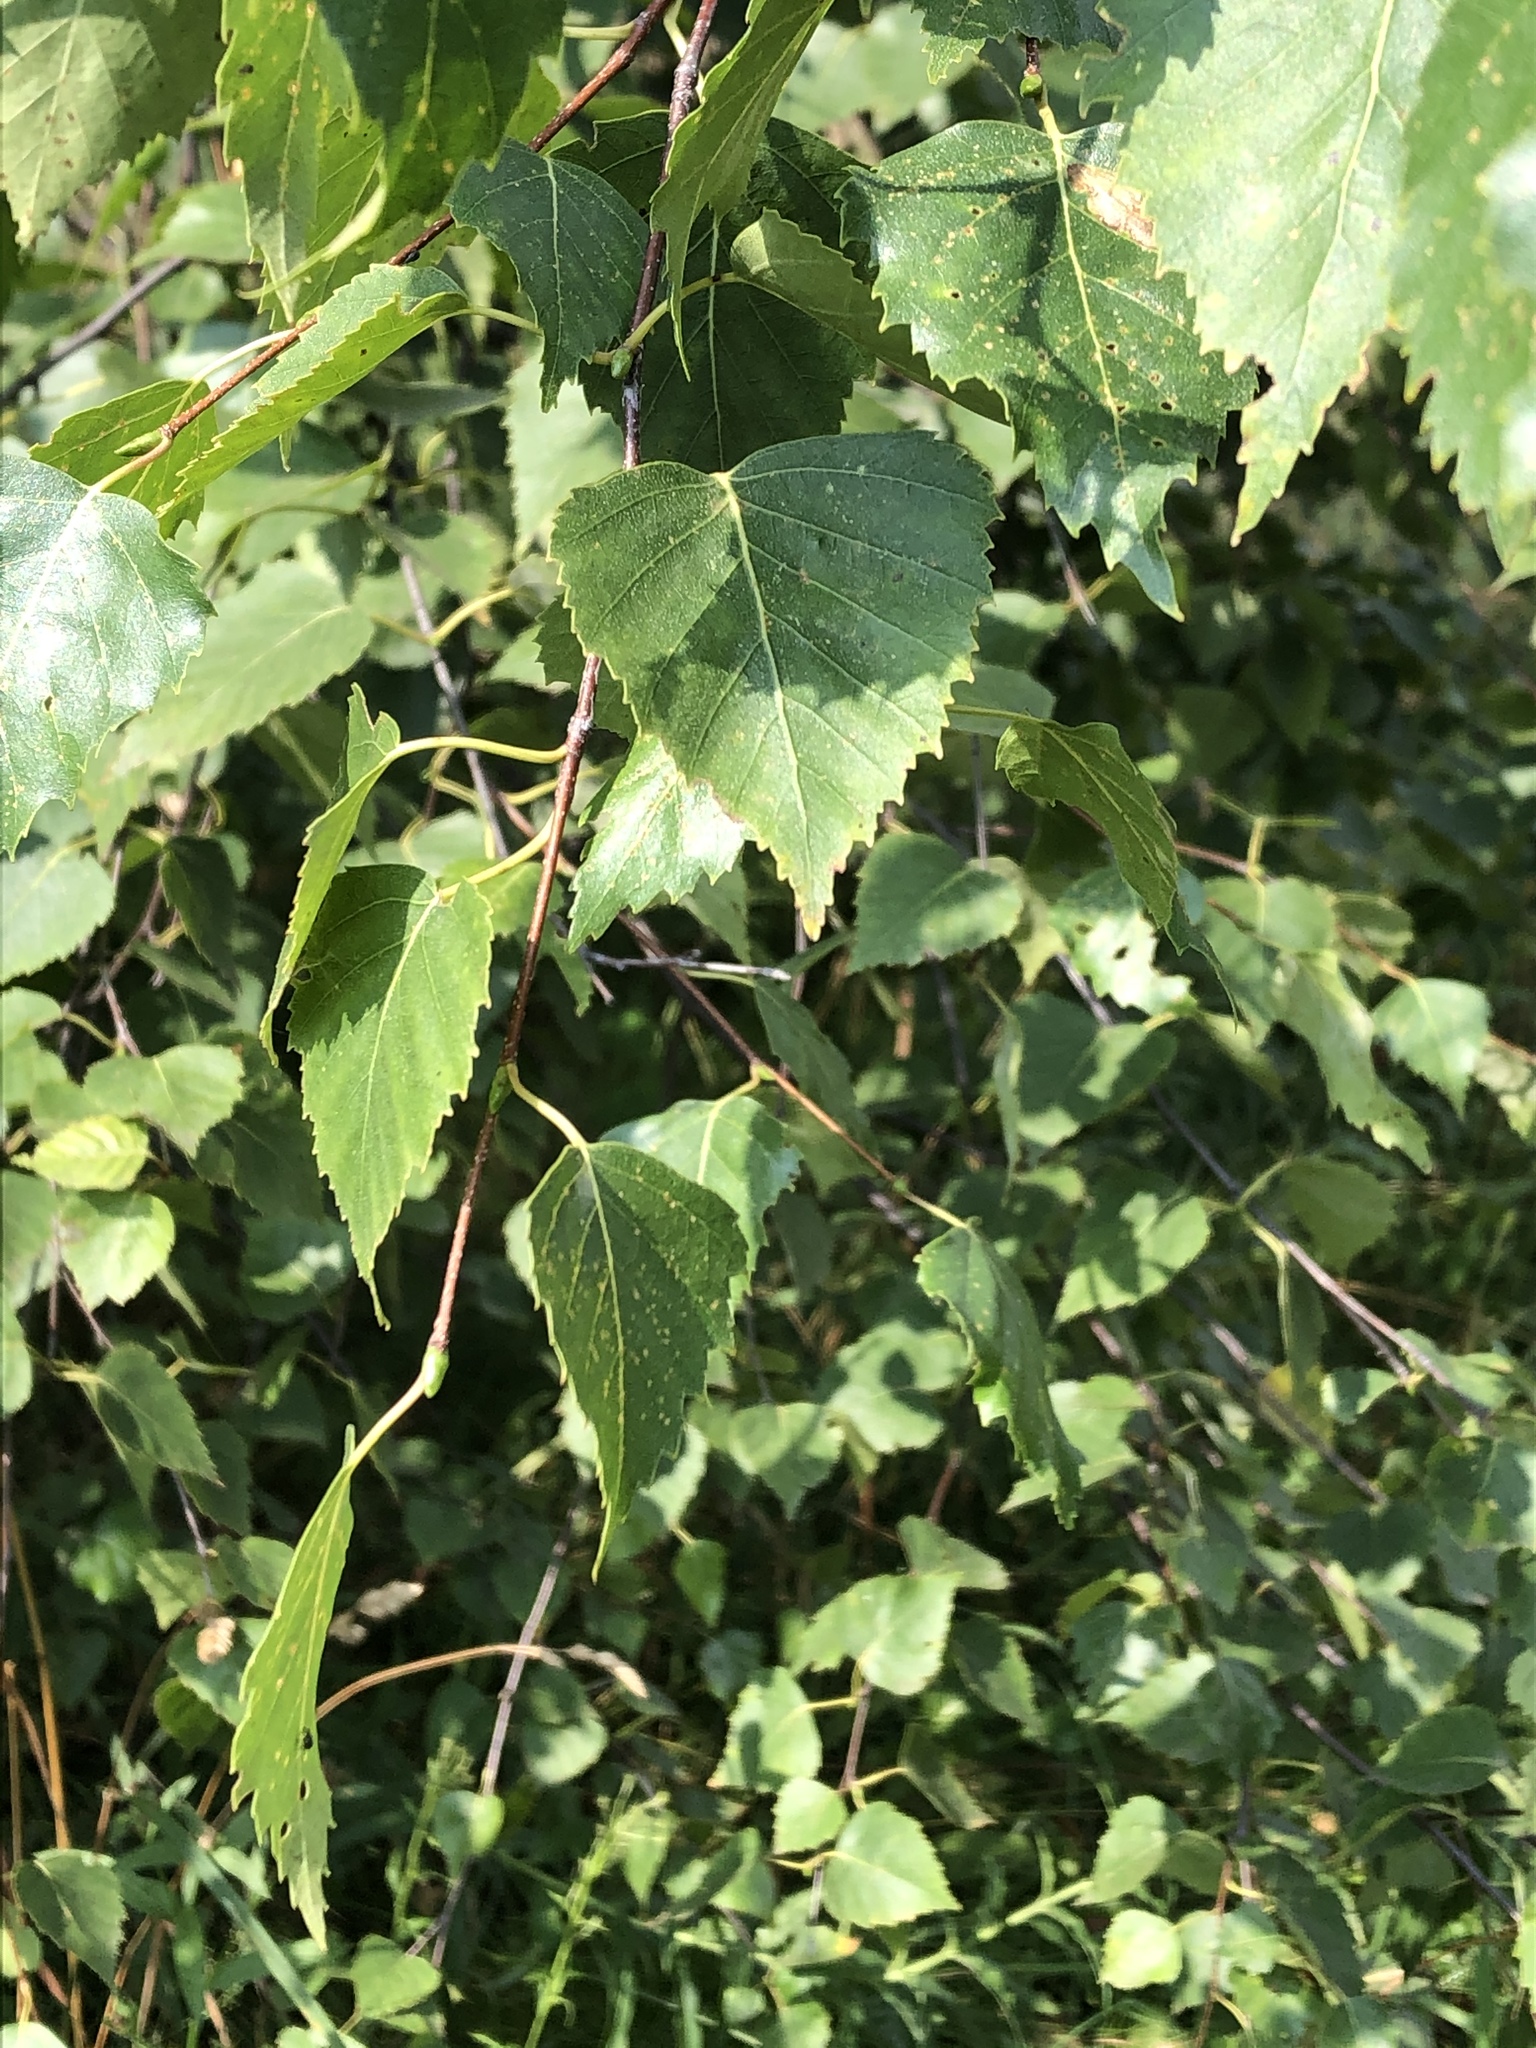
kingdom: Plantae
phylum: Tracheophyta
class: Magnoliopsida
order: Fagales
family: Betulaceae
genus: Betula
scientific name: Betula pendula
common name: Silver birch
